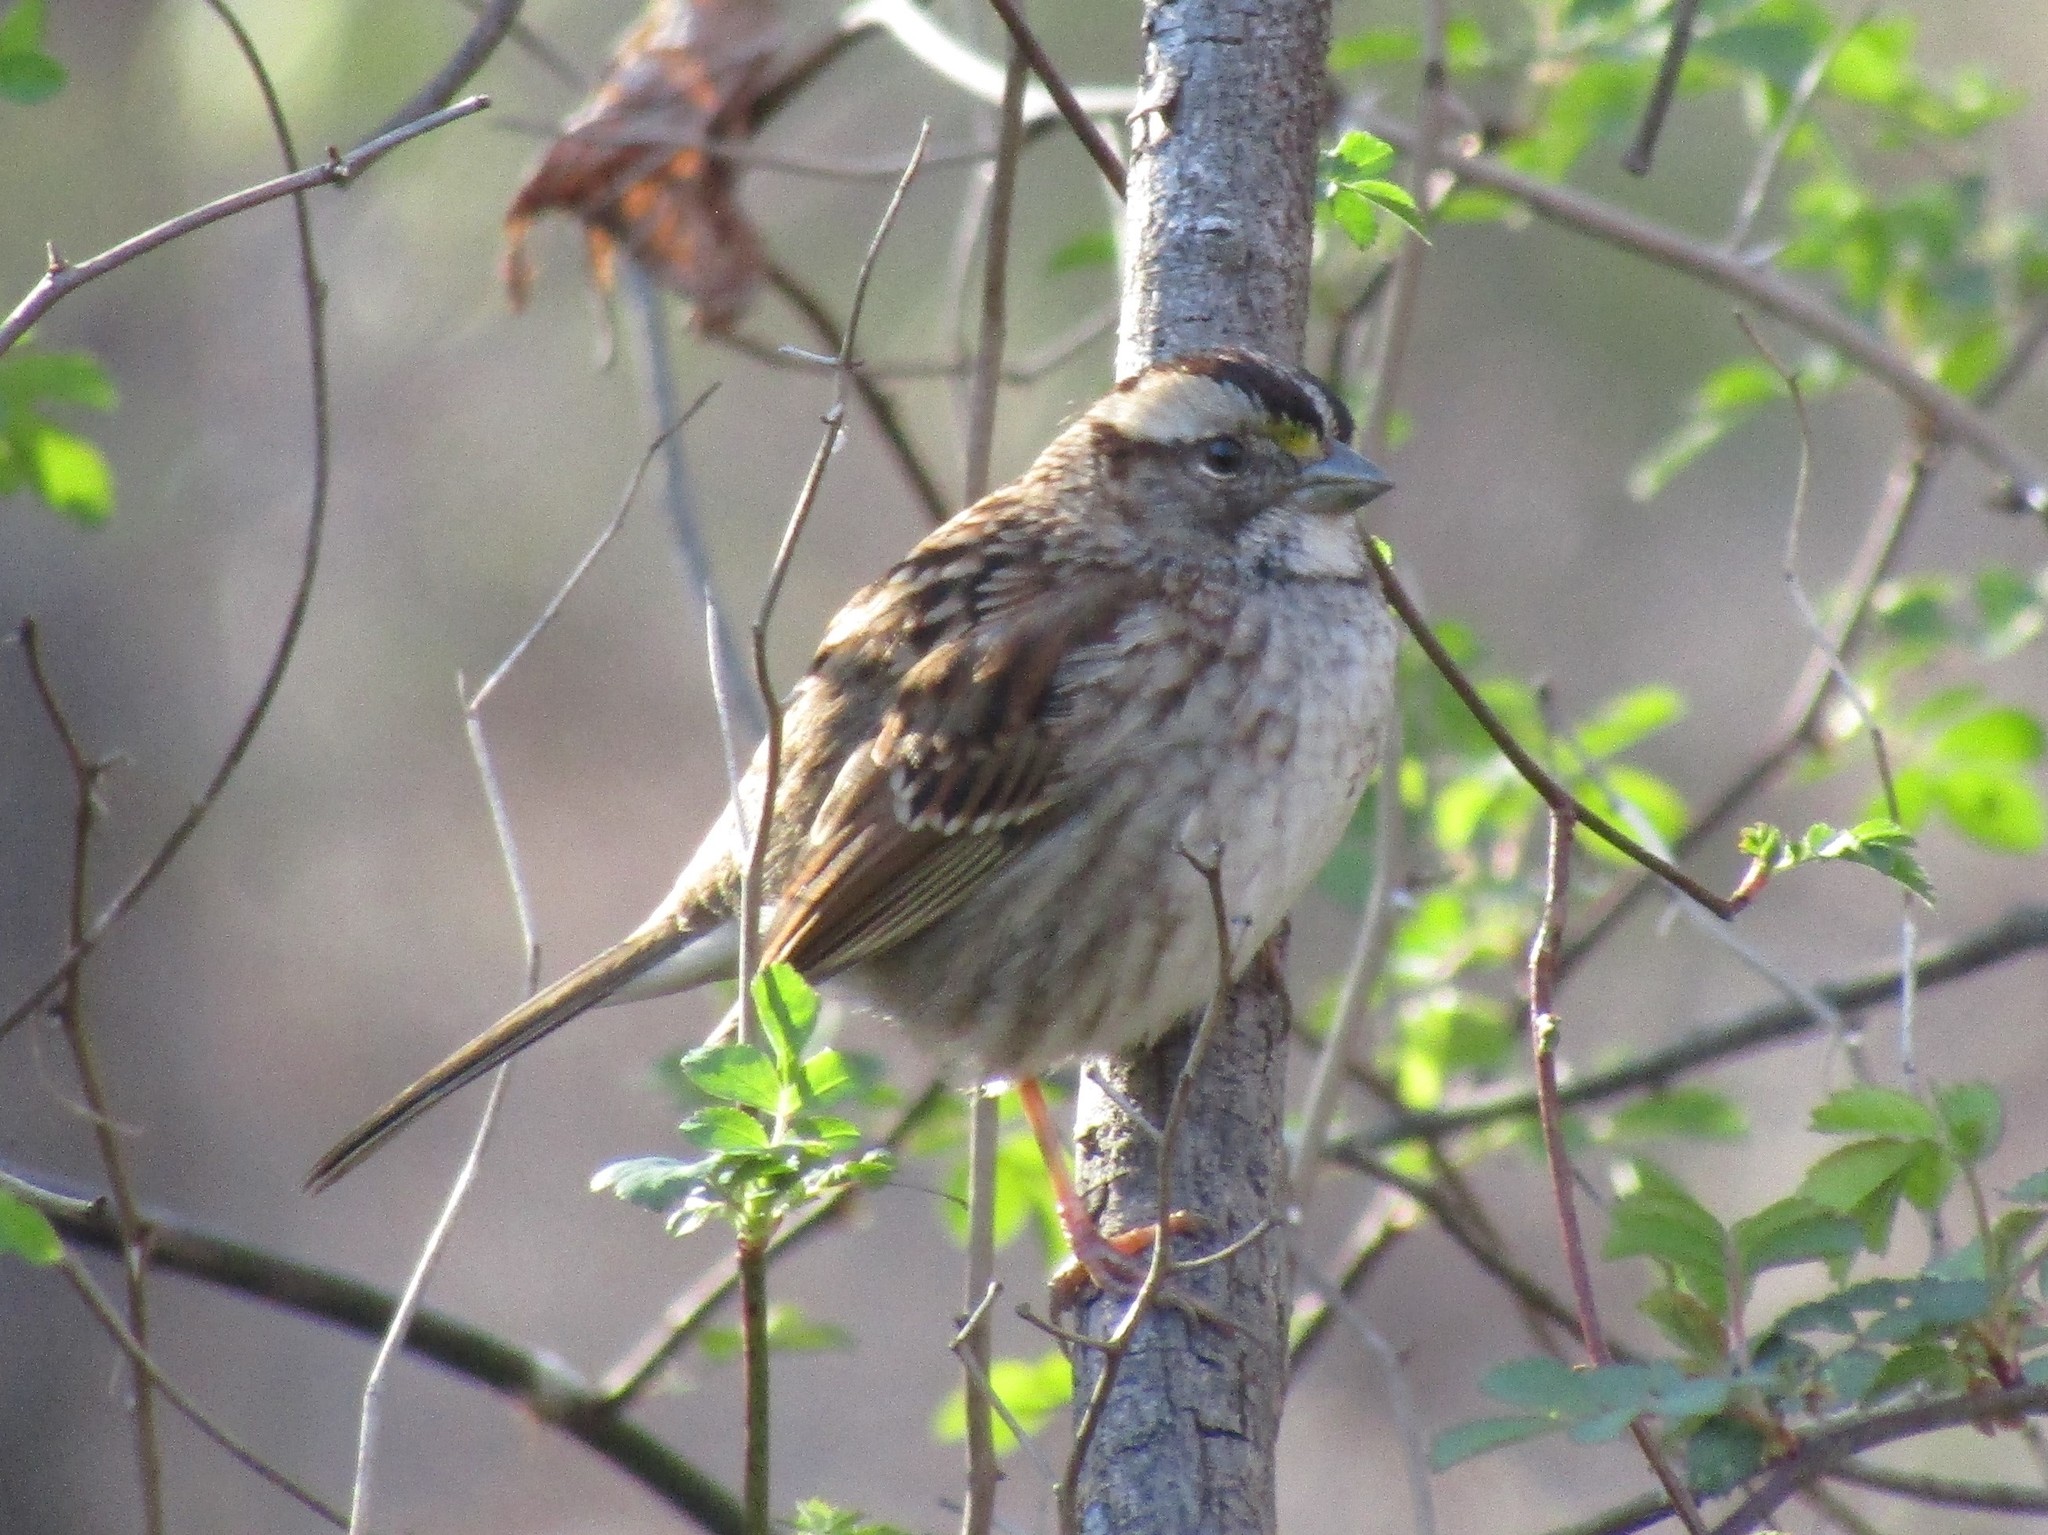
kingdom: Animalia
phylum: Chordata
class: Aves
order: Passeriformes
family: Passerellidae
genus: Zonotrichia
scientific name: Zonotrichia albicollis
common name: White-throated sparrow
